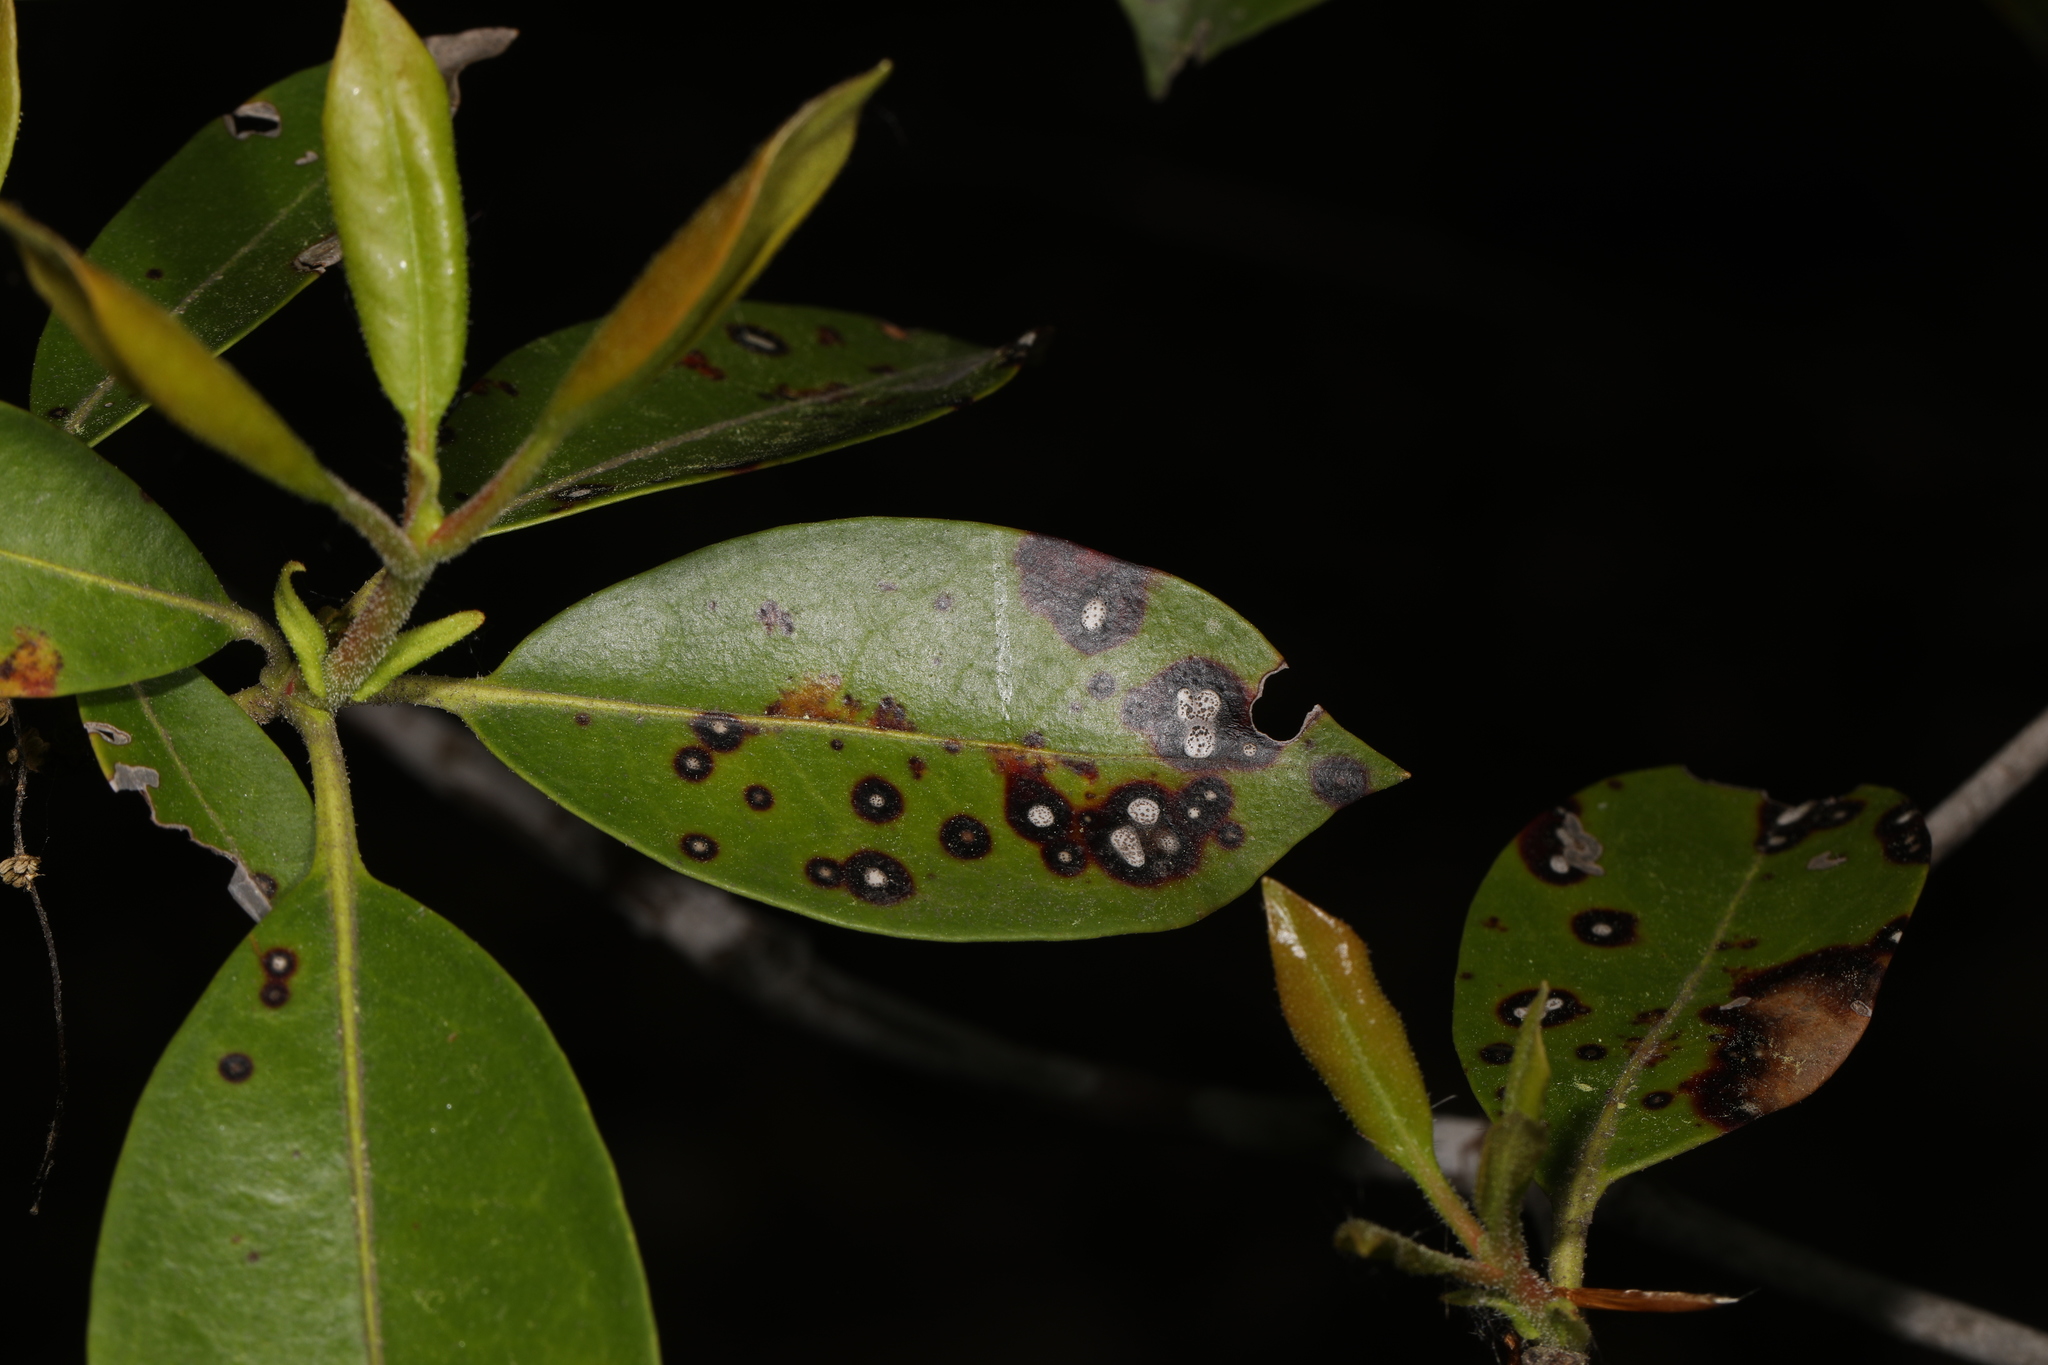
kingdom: Fungi
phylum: Ascomycota
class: Dothideomycetes
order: Mycosphaerellales
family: Mycosphaerellaceae
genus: Mycosphaerella
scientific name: Mycosphaerella colorata
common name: Mountain laurel leaf spot
